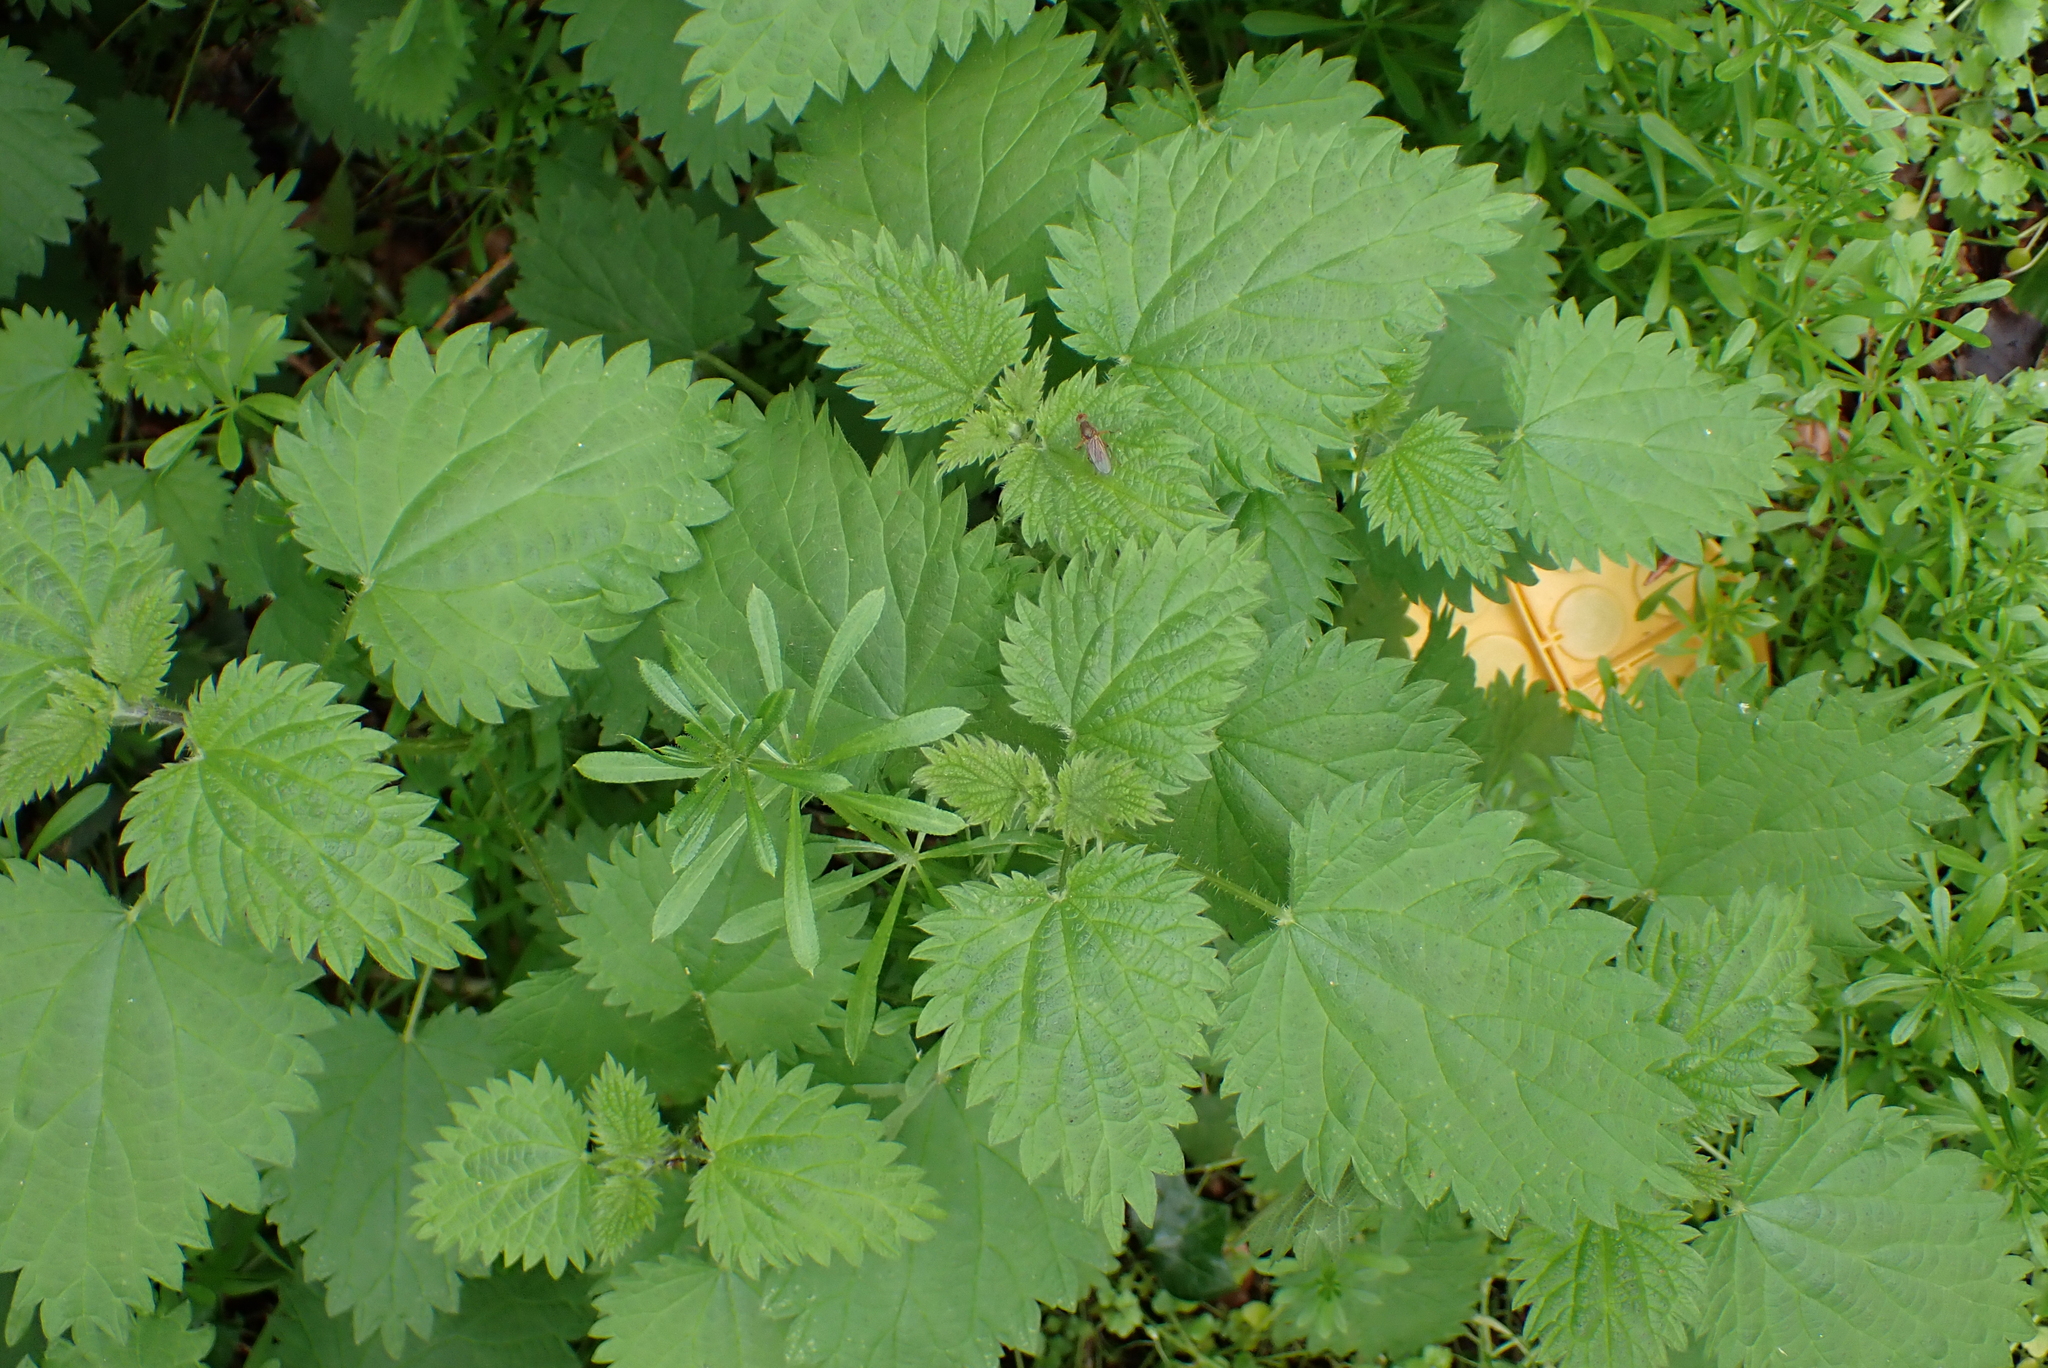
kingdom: Plantae
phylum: Tracheophyta
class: Magnoliopsida
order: Rosales
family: Urticaceae
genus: Urtica
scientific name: Urtica dioica
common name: Common nettle
